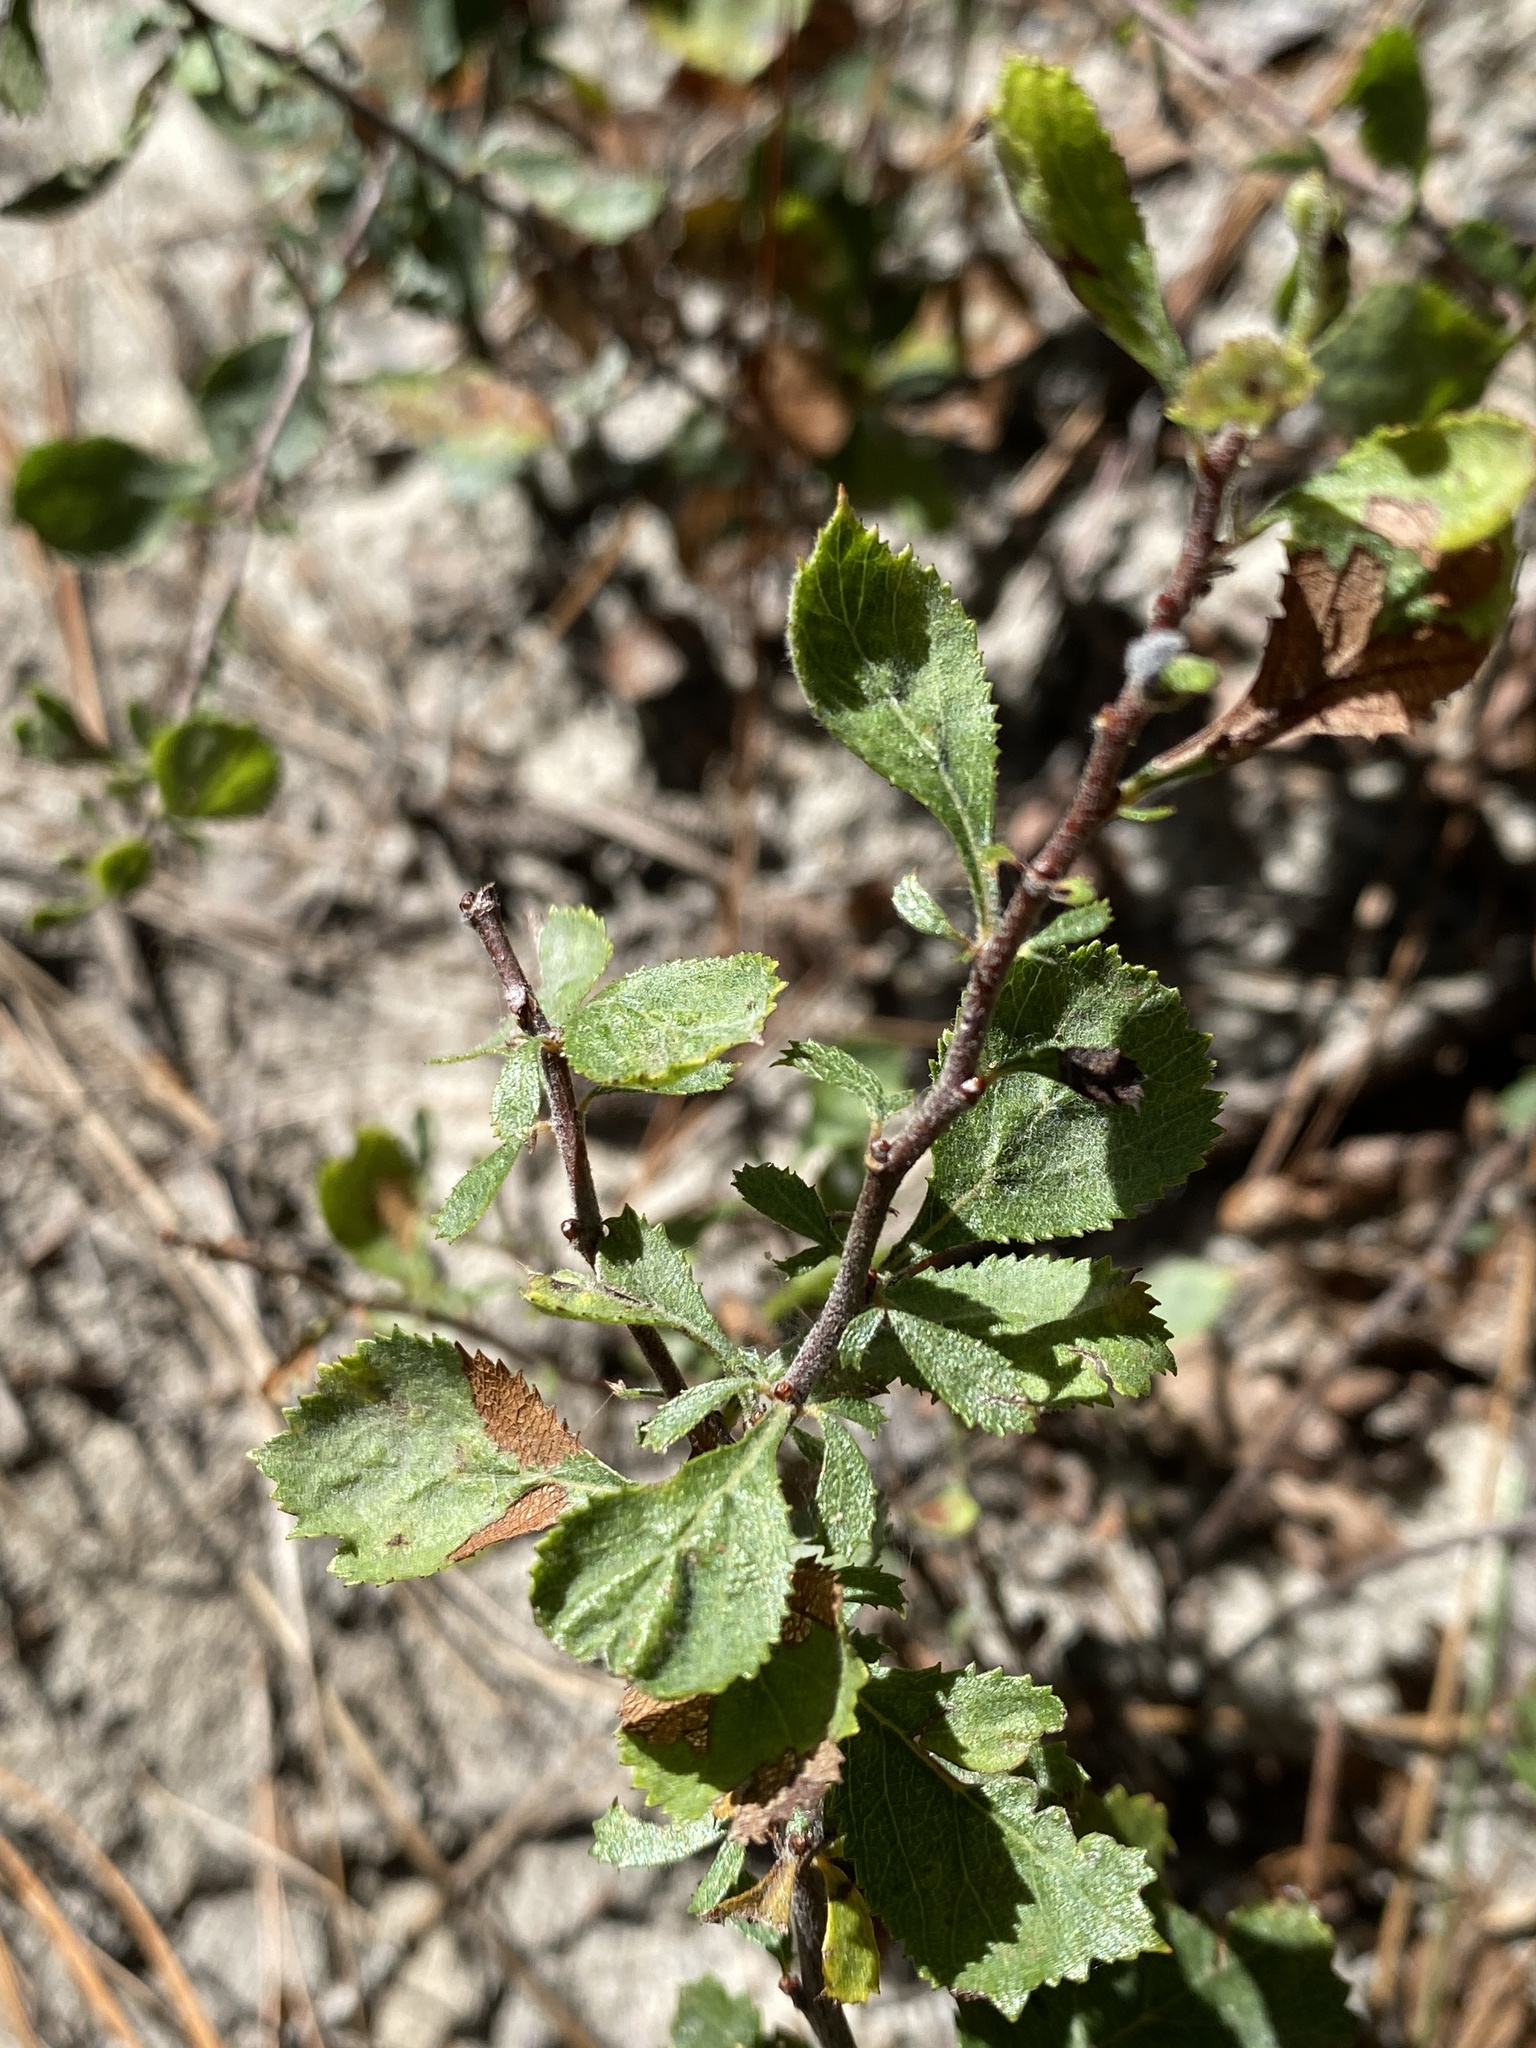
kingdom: Plantae
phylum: Tracheophyta
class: Magnoliopsida
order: Rosales
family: Rosaceae
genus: Crataegus
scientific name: Crataegus munda
